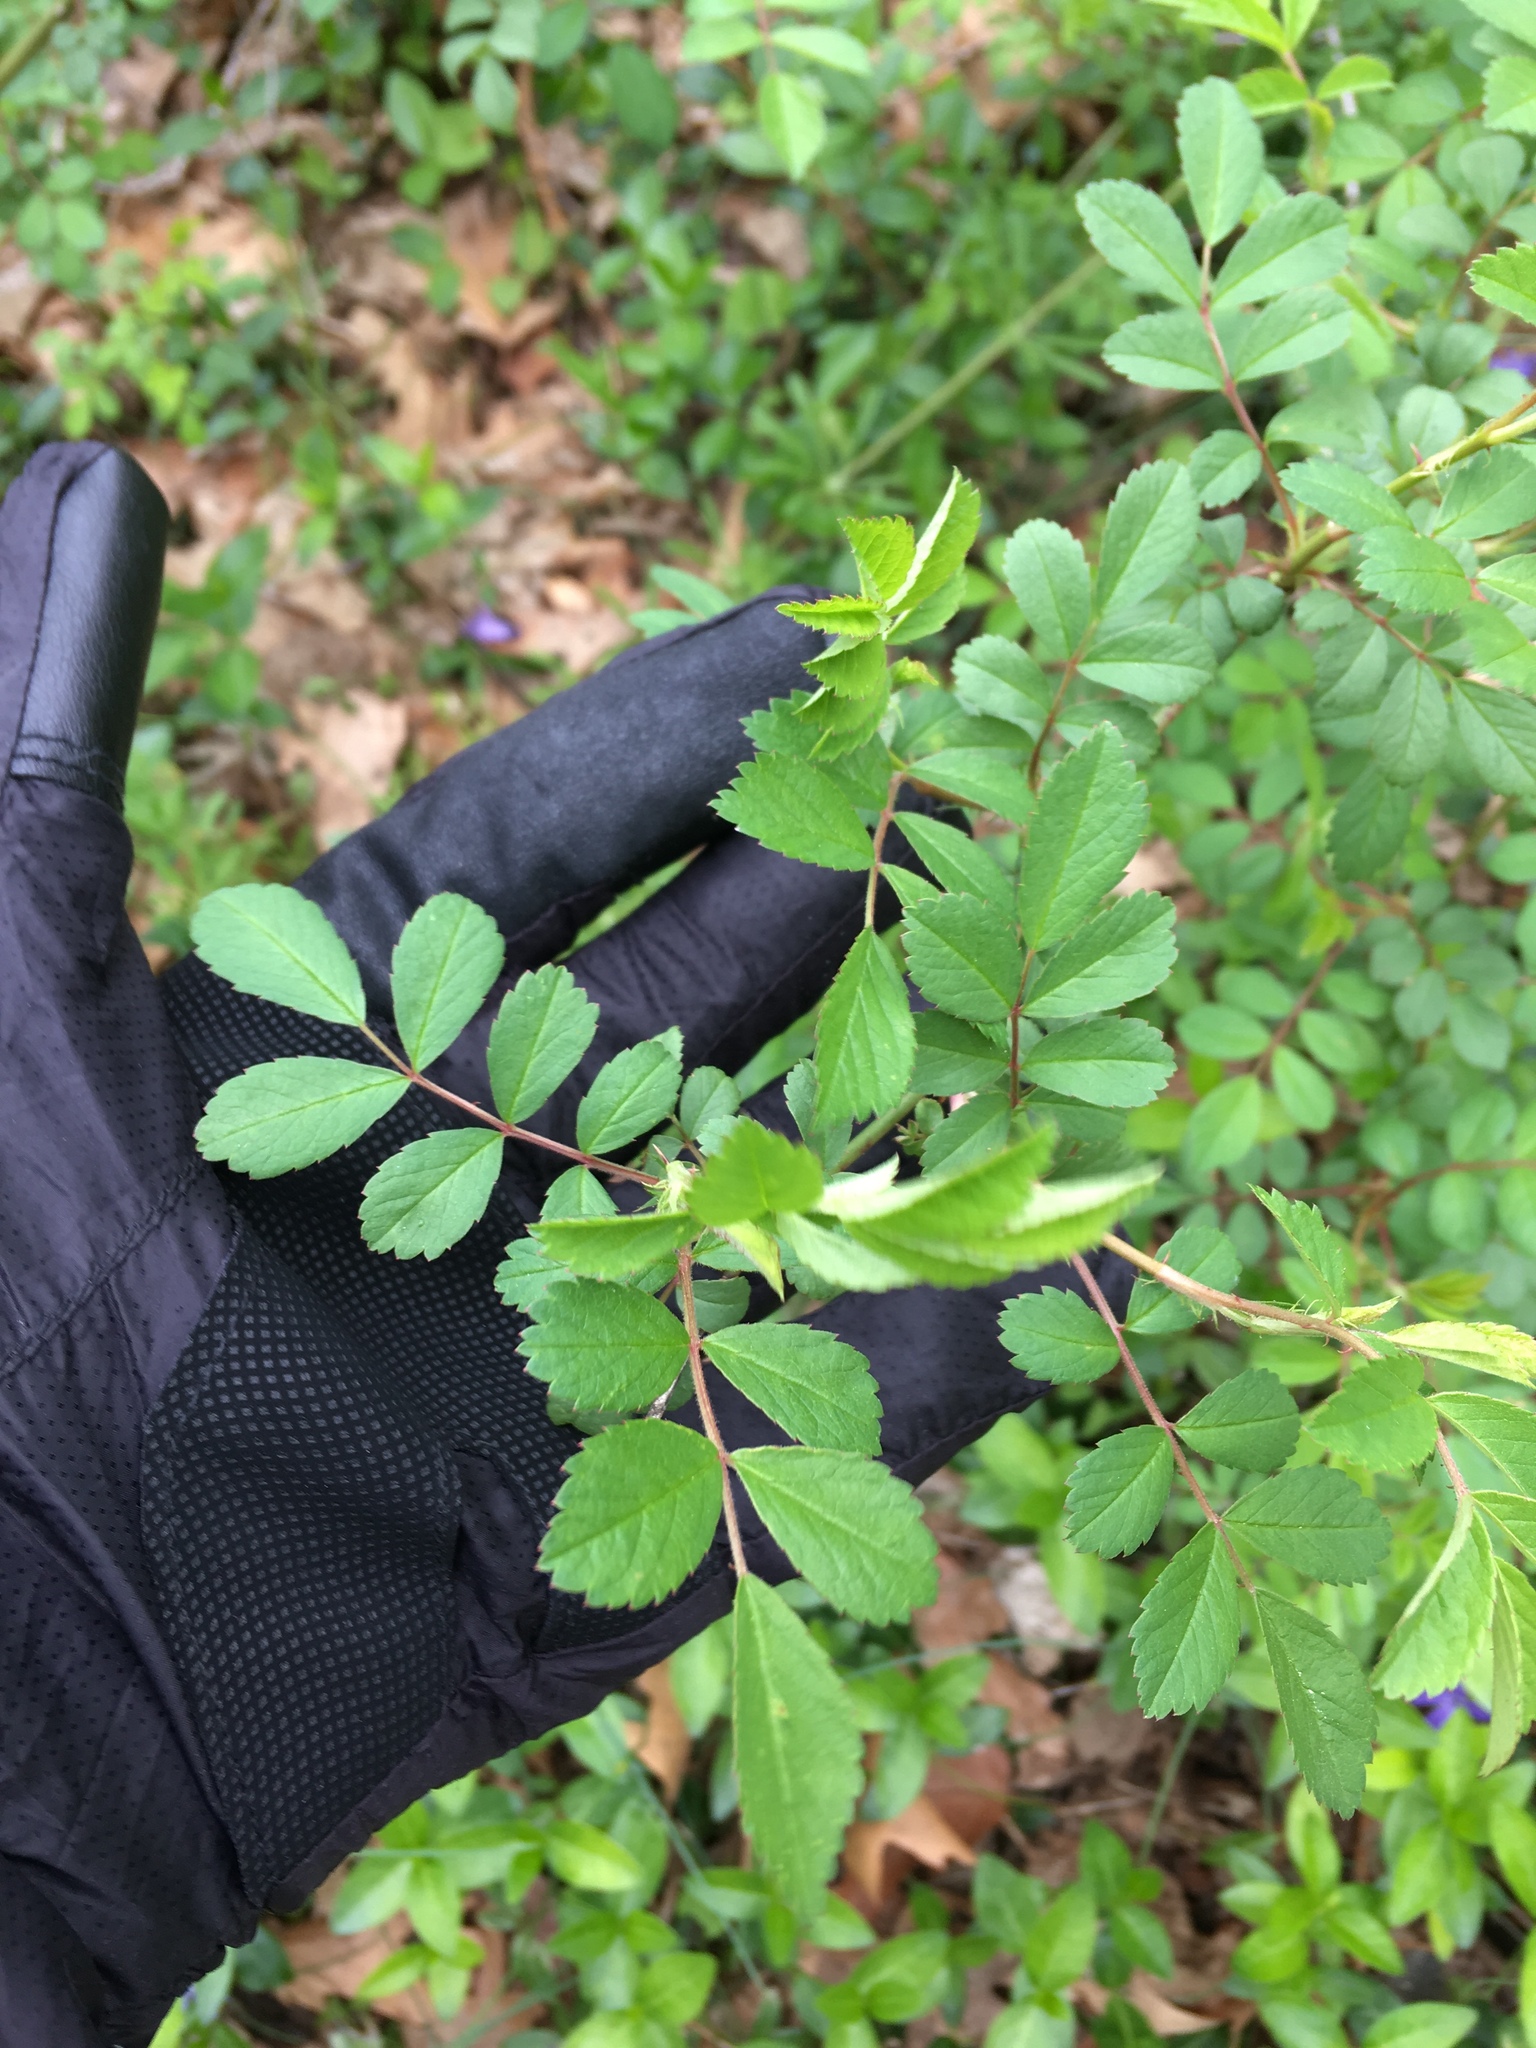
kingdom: Plantae
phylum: Tracheophyta
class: Magnoliopsida
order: Rosales
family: Rosaceae
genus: Rosa
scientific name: Rosa multiflora
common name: Multiflora rose
